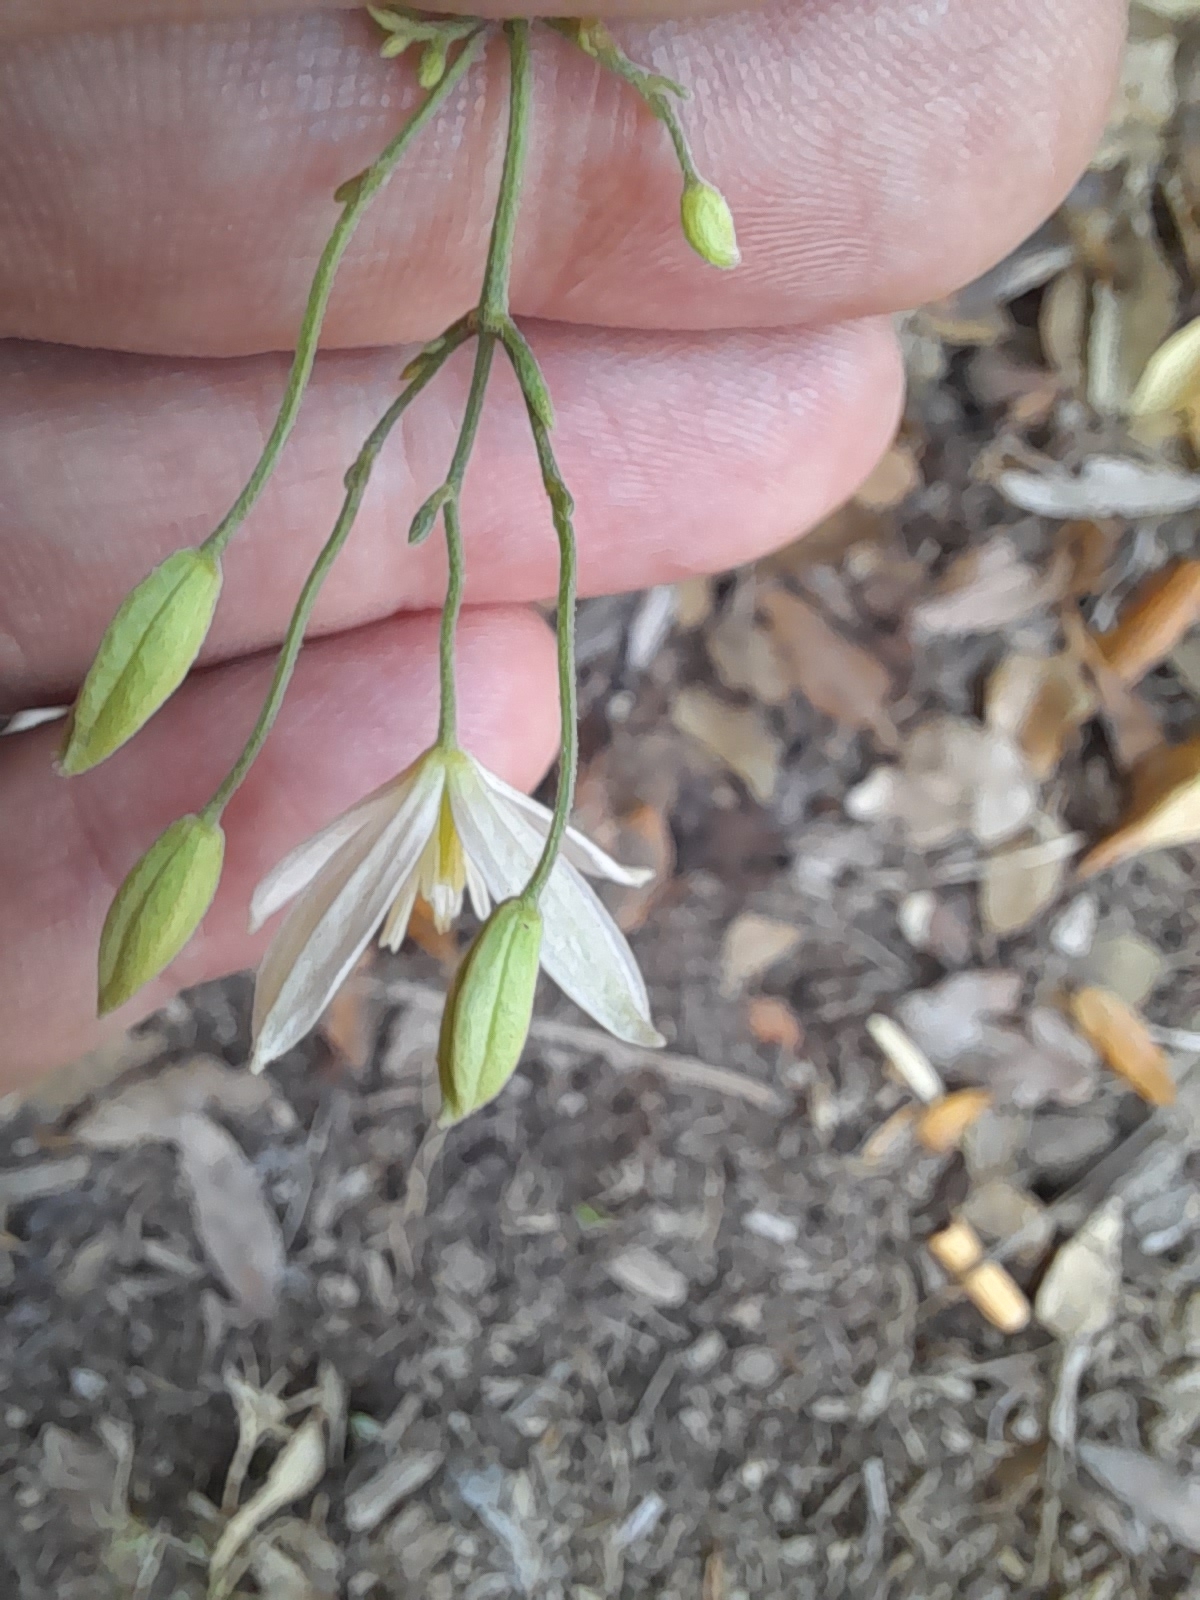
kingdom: Plantae
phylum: Tracheophyta
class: Magnoliopsida
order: Ranunculales
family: Ranunculaceae
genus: Clematis
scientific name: Clematis flammula
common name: Virgin's-bower
